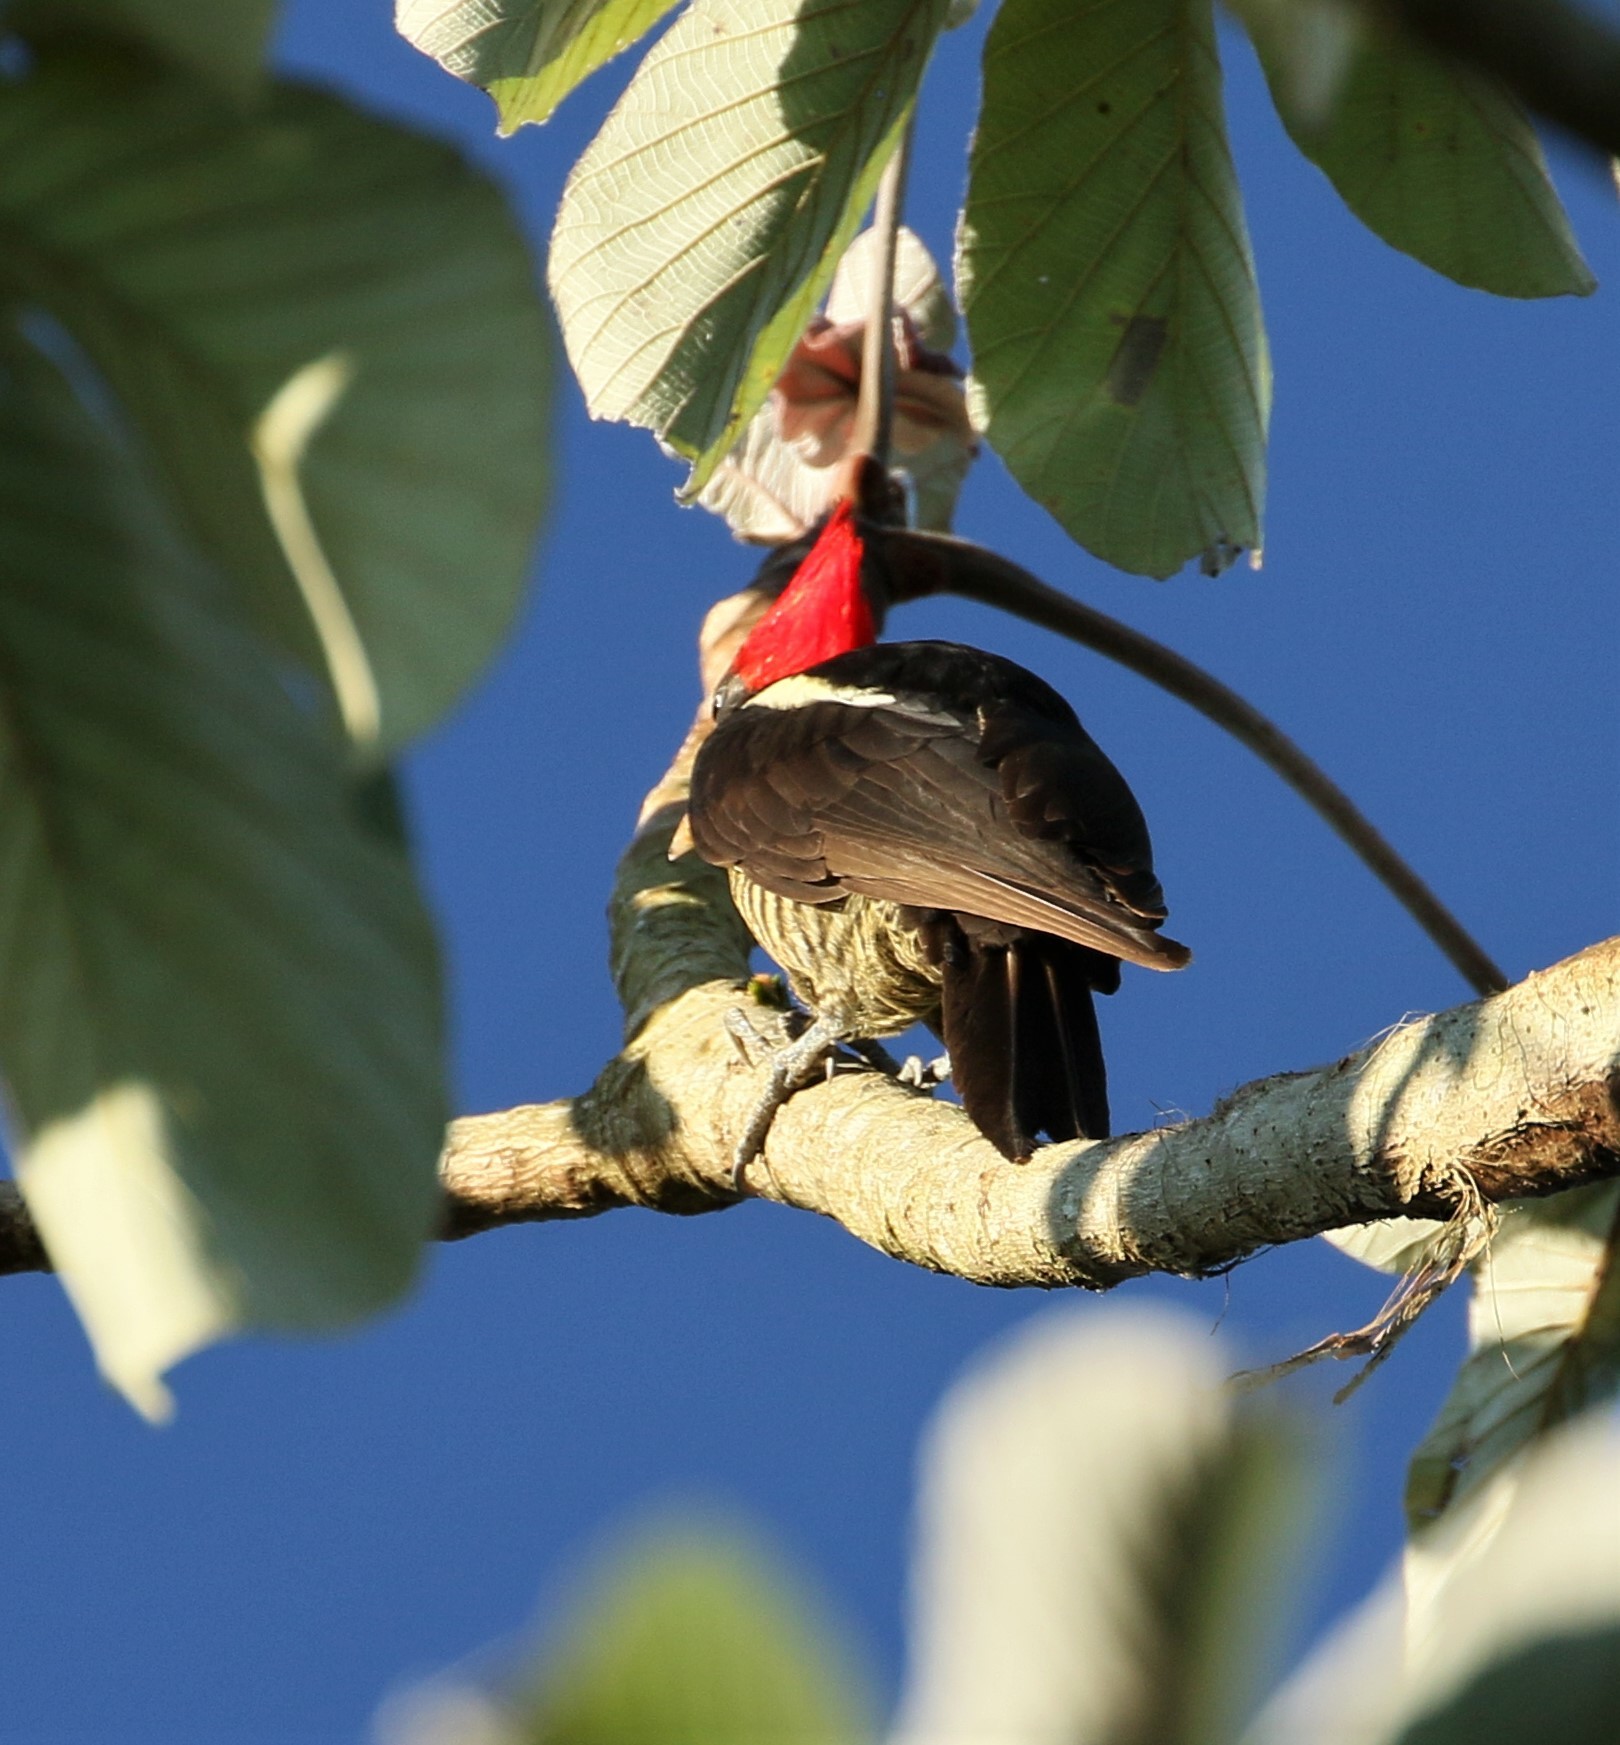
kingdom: Animalia
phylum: Chordata
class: Aves
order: Piciformes
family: Picidae
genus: Dryocopus
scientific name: Dryocopus lineatus
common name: Lineated woodpecker
